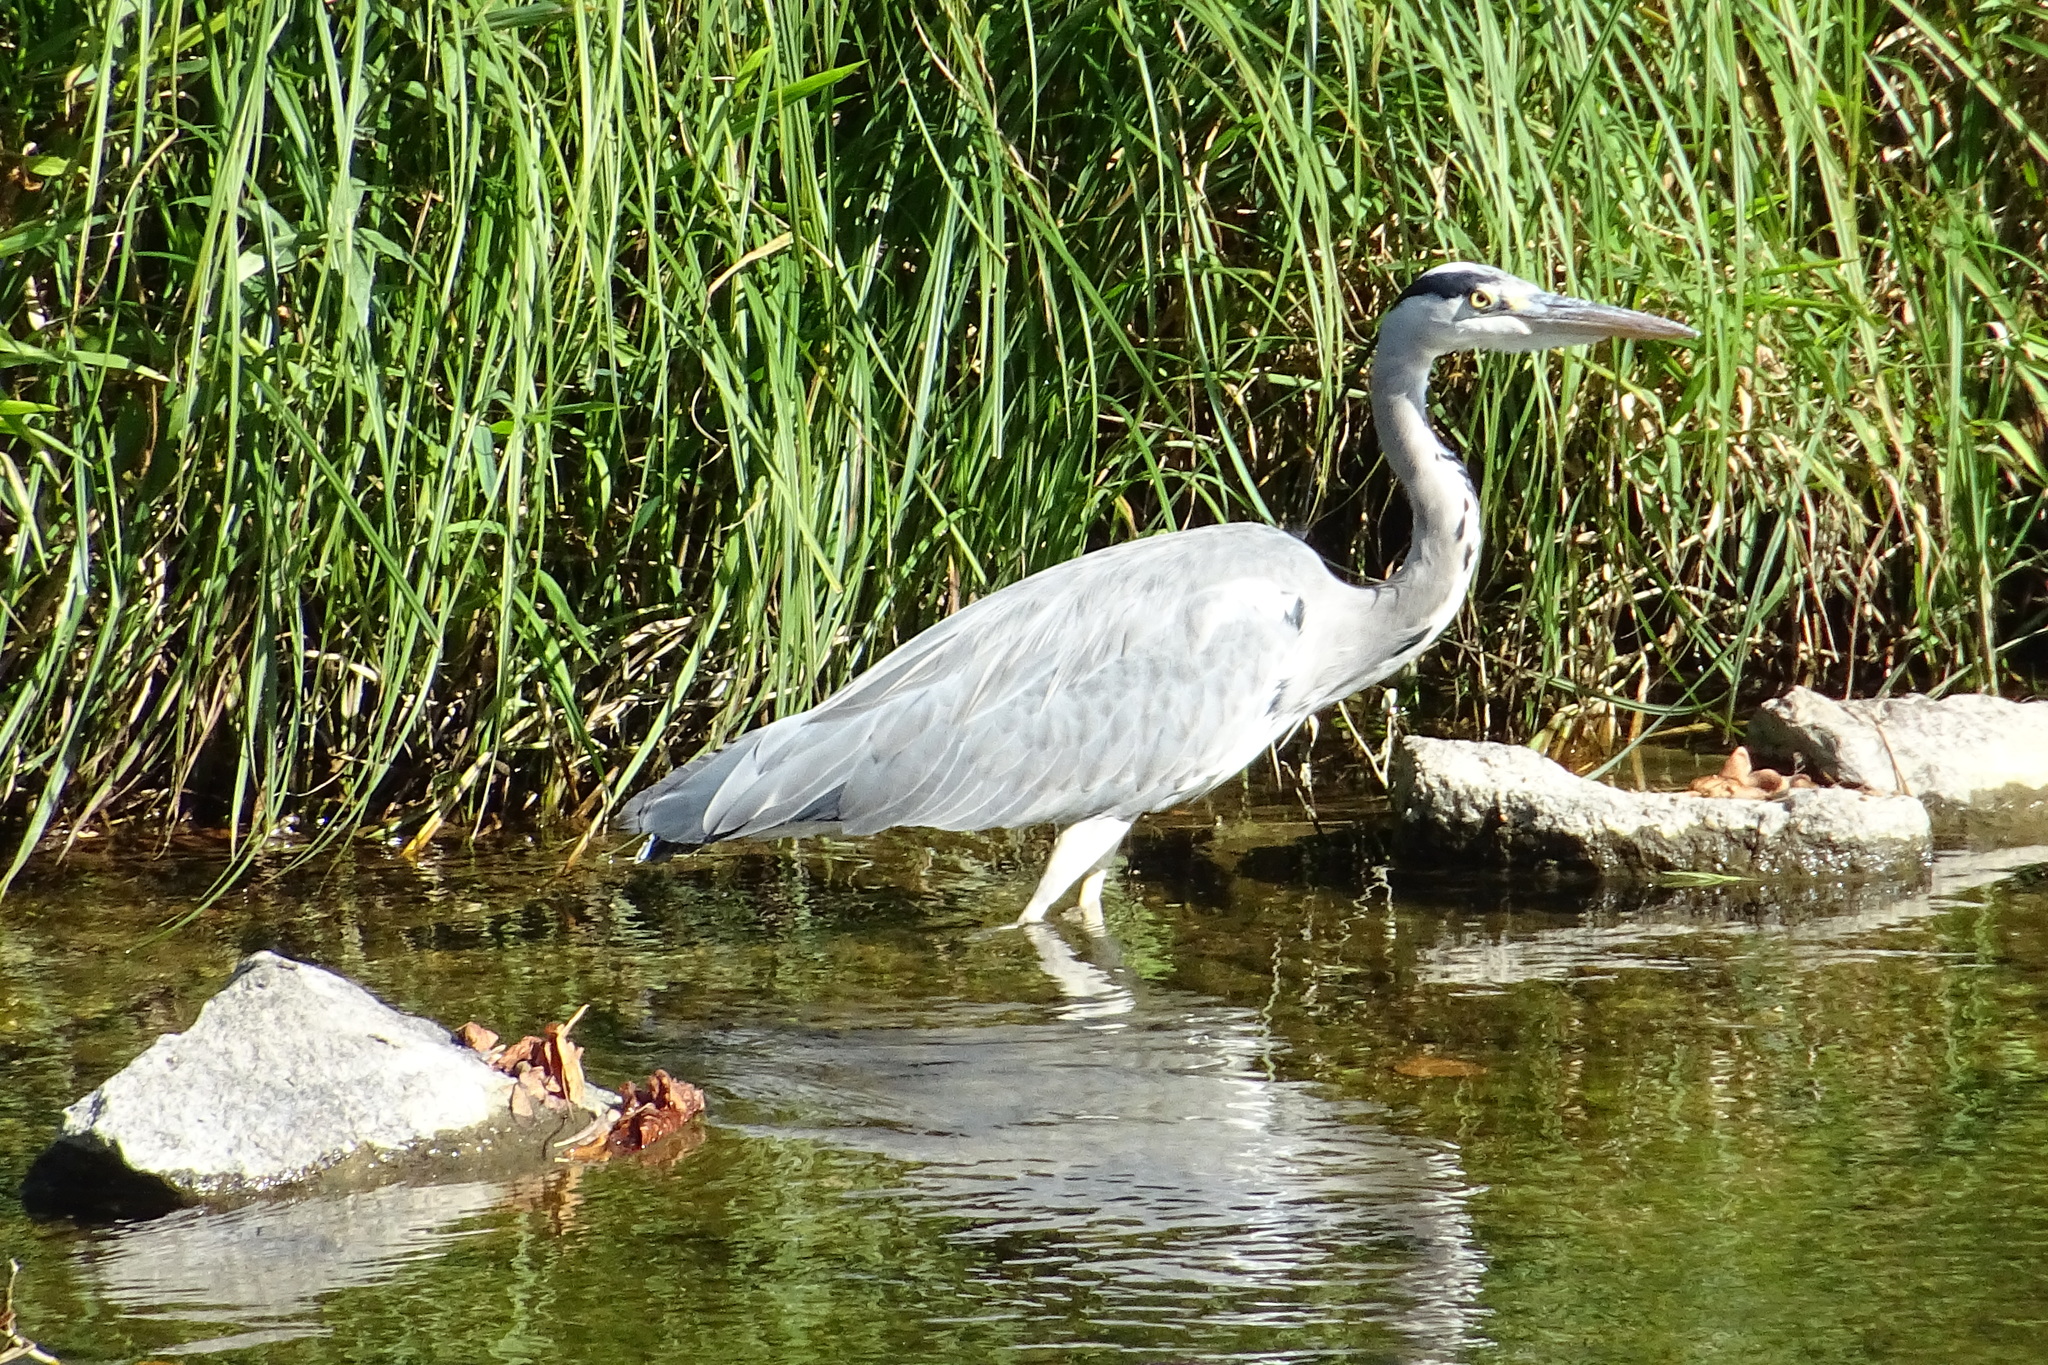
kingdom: Animalia
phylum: Chordata
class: Aves
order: Pelecaniformes
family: Ardeidae
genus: Ardea
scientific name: Ardea cinerea
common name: Grey heron
